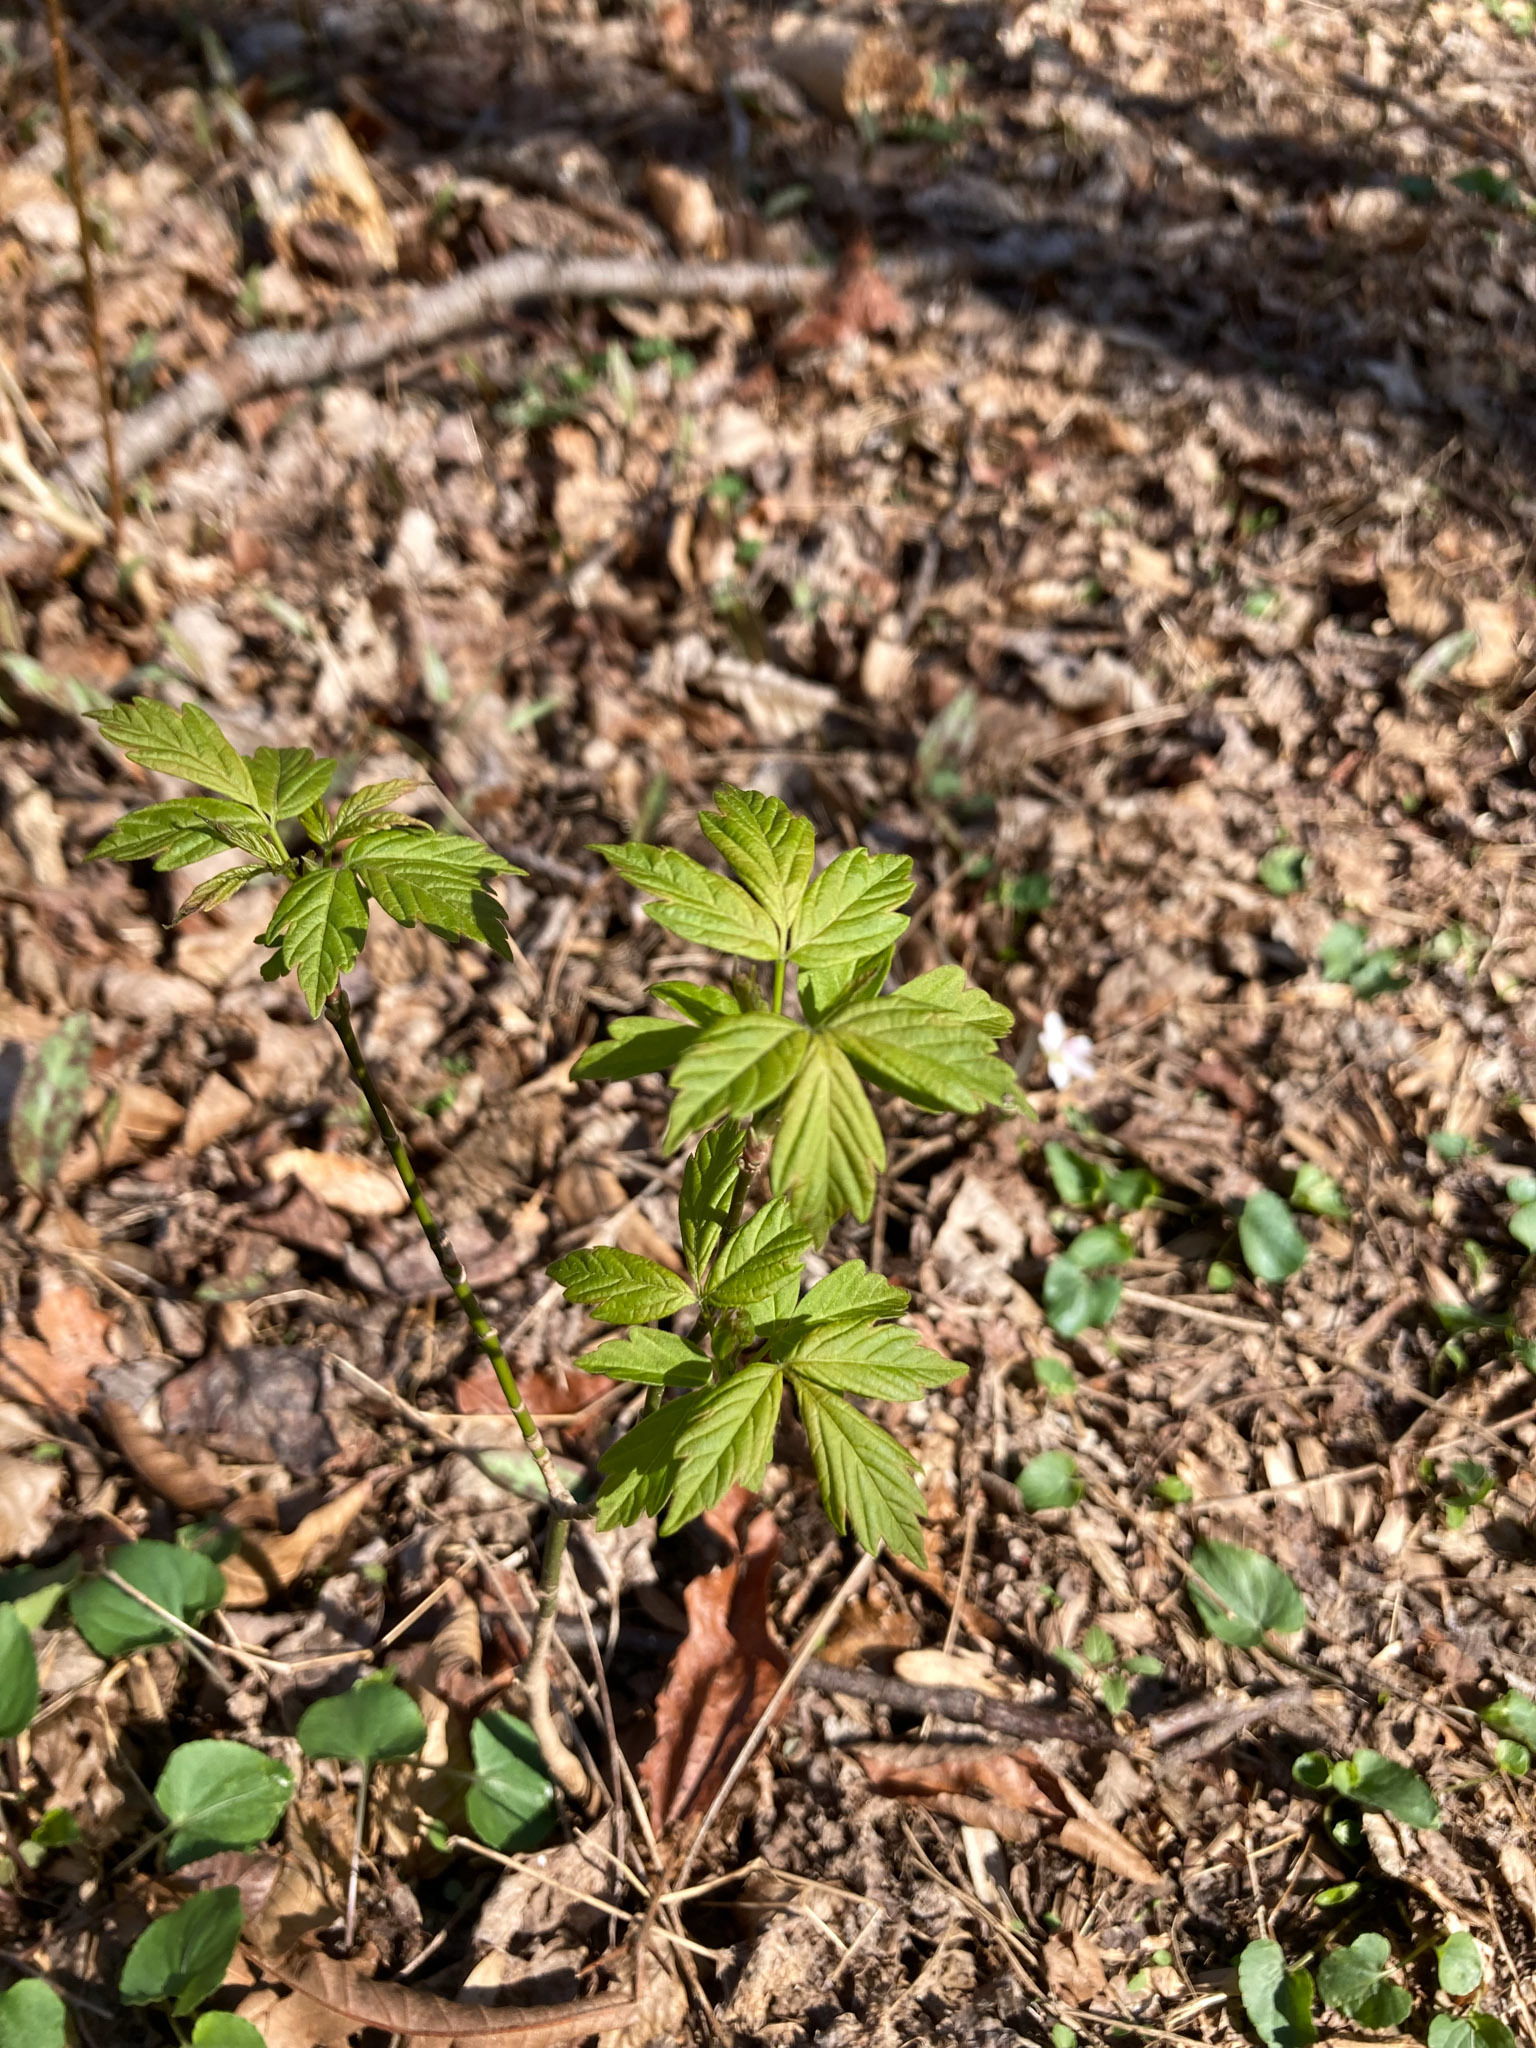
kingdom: Plantae
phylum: Tracheophyta
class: Magnoliopsida
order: Sapindales
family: Sapindaceae
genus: Acer
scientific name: Acer negundo
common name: Ashleaf maple
